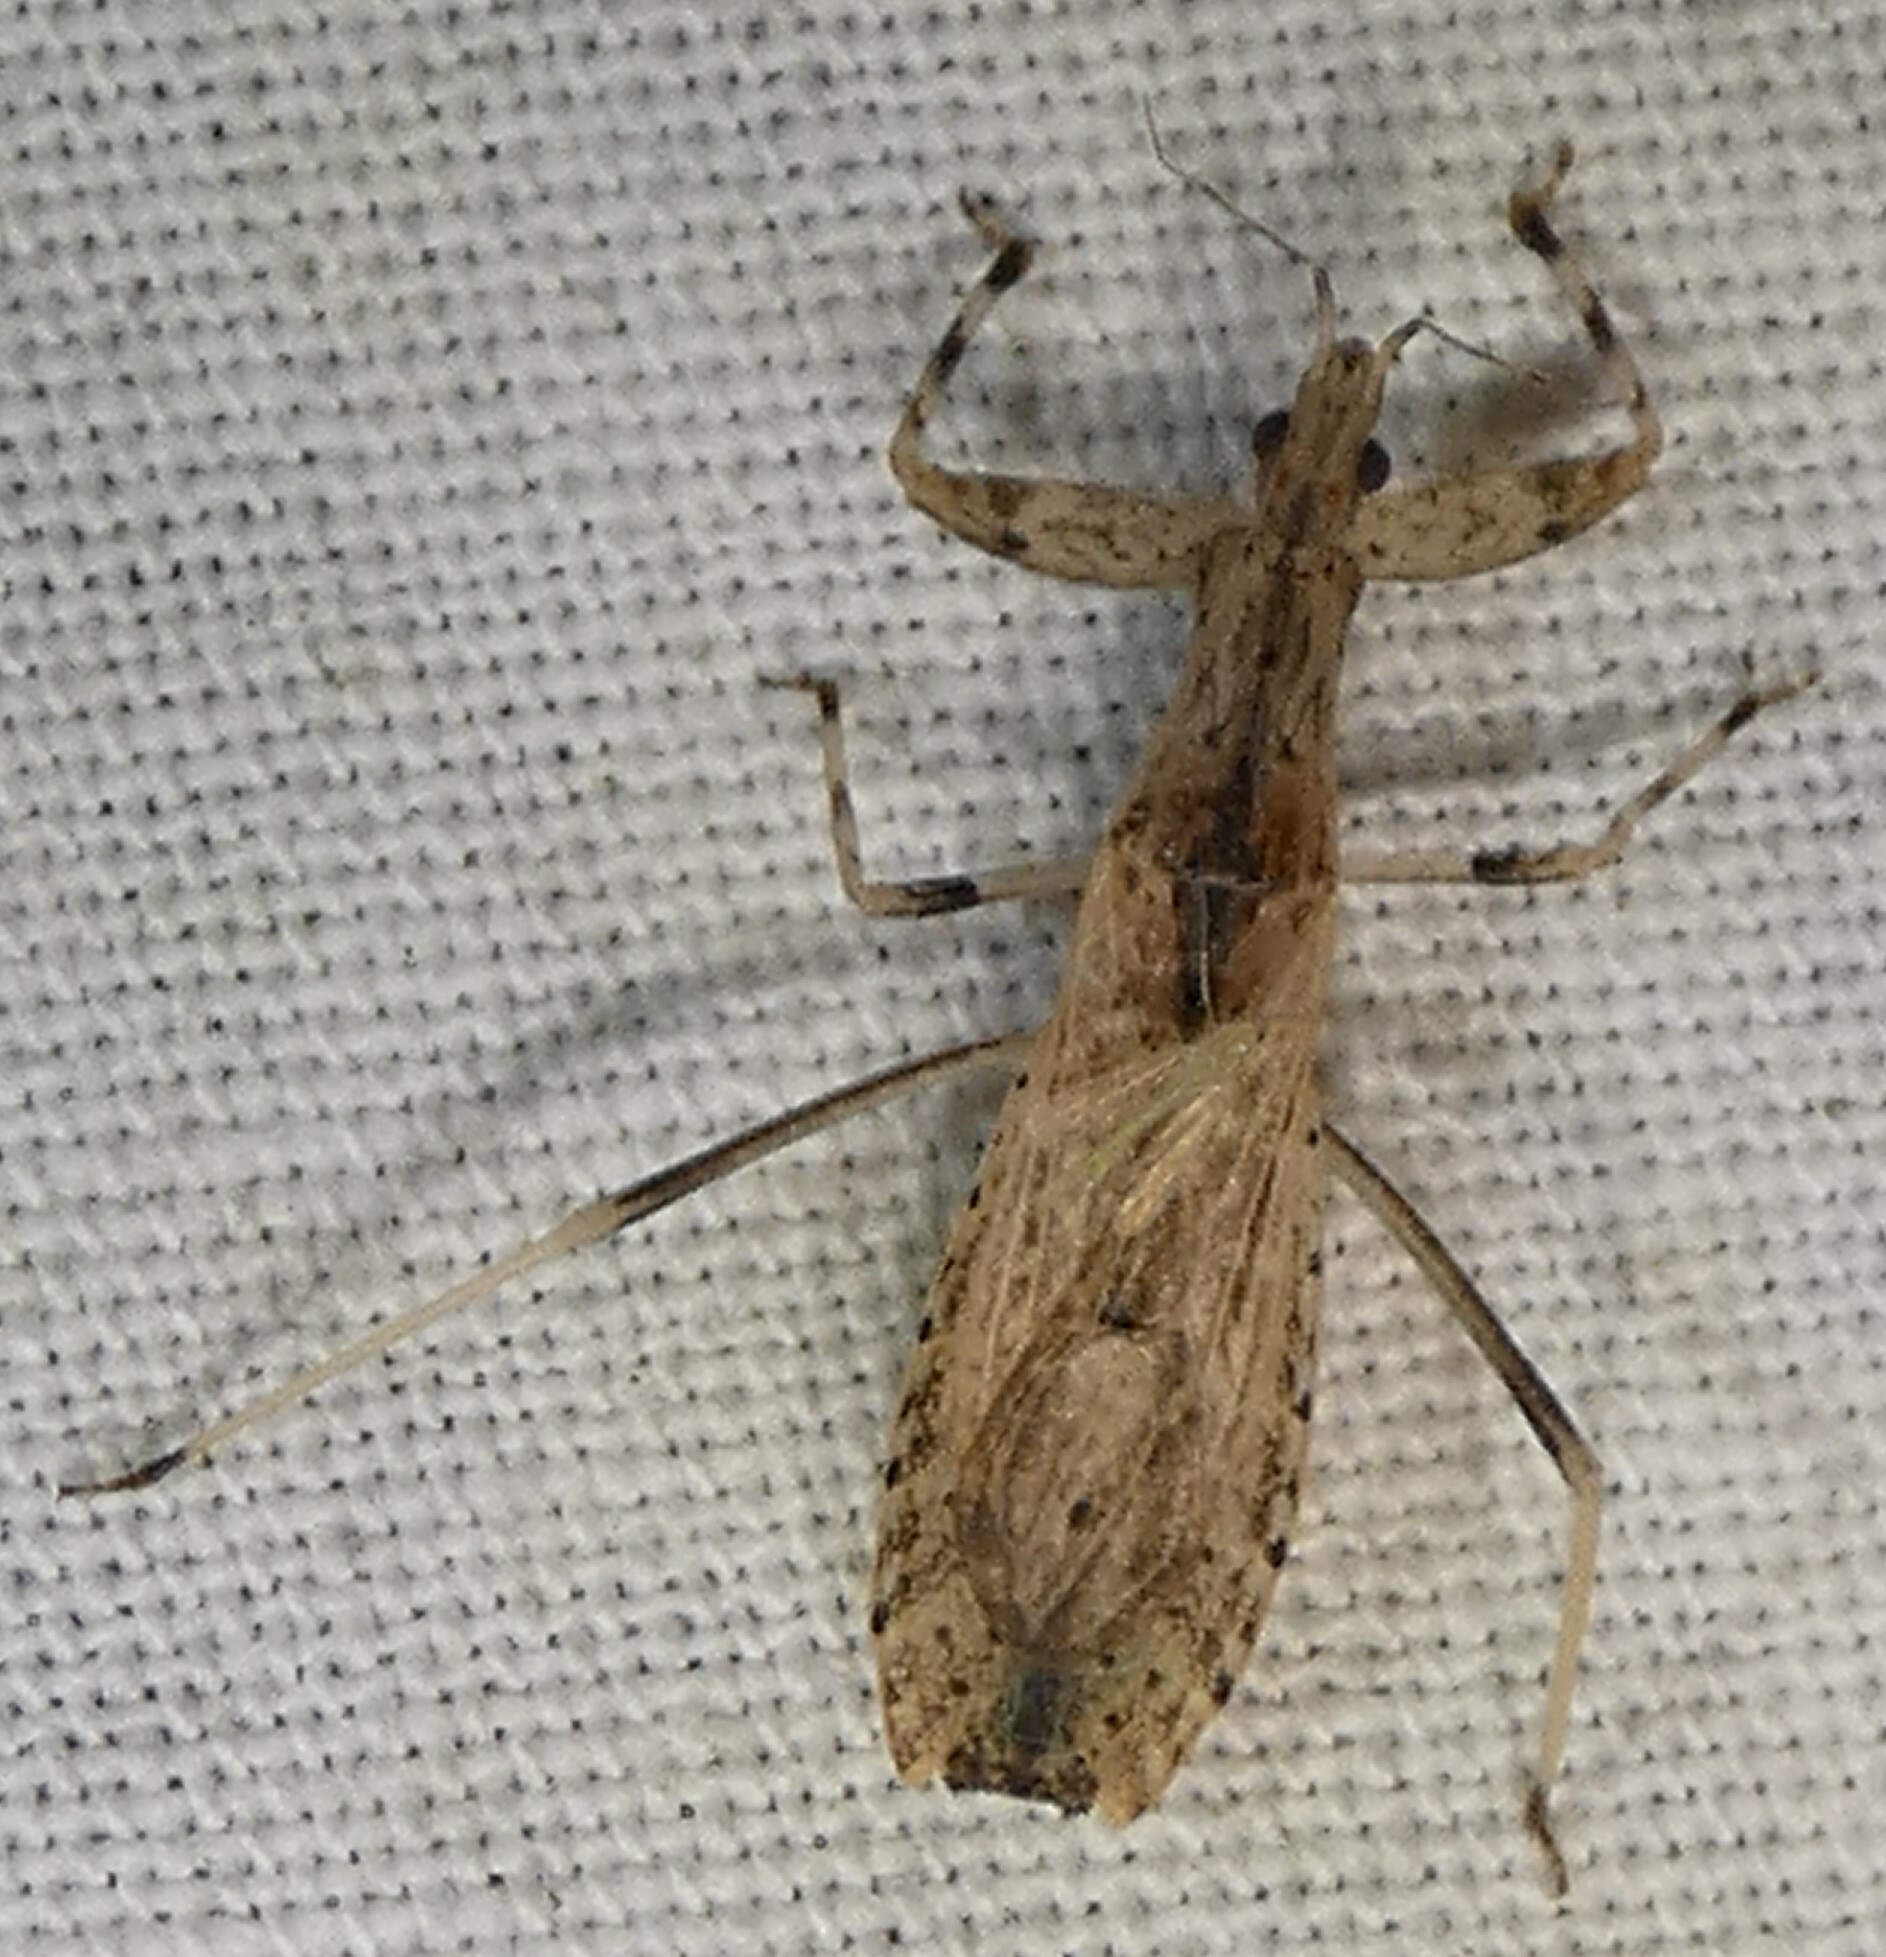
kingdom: Animalia
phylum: Arthropoda
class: Insecta
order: Hemiptera
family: Reduviidae
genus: Ctenotrachelus
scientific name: Ctenotrachelus shermani
